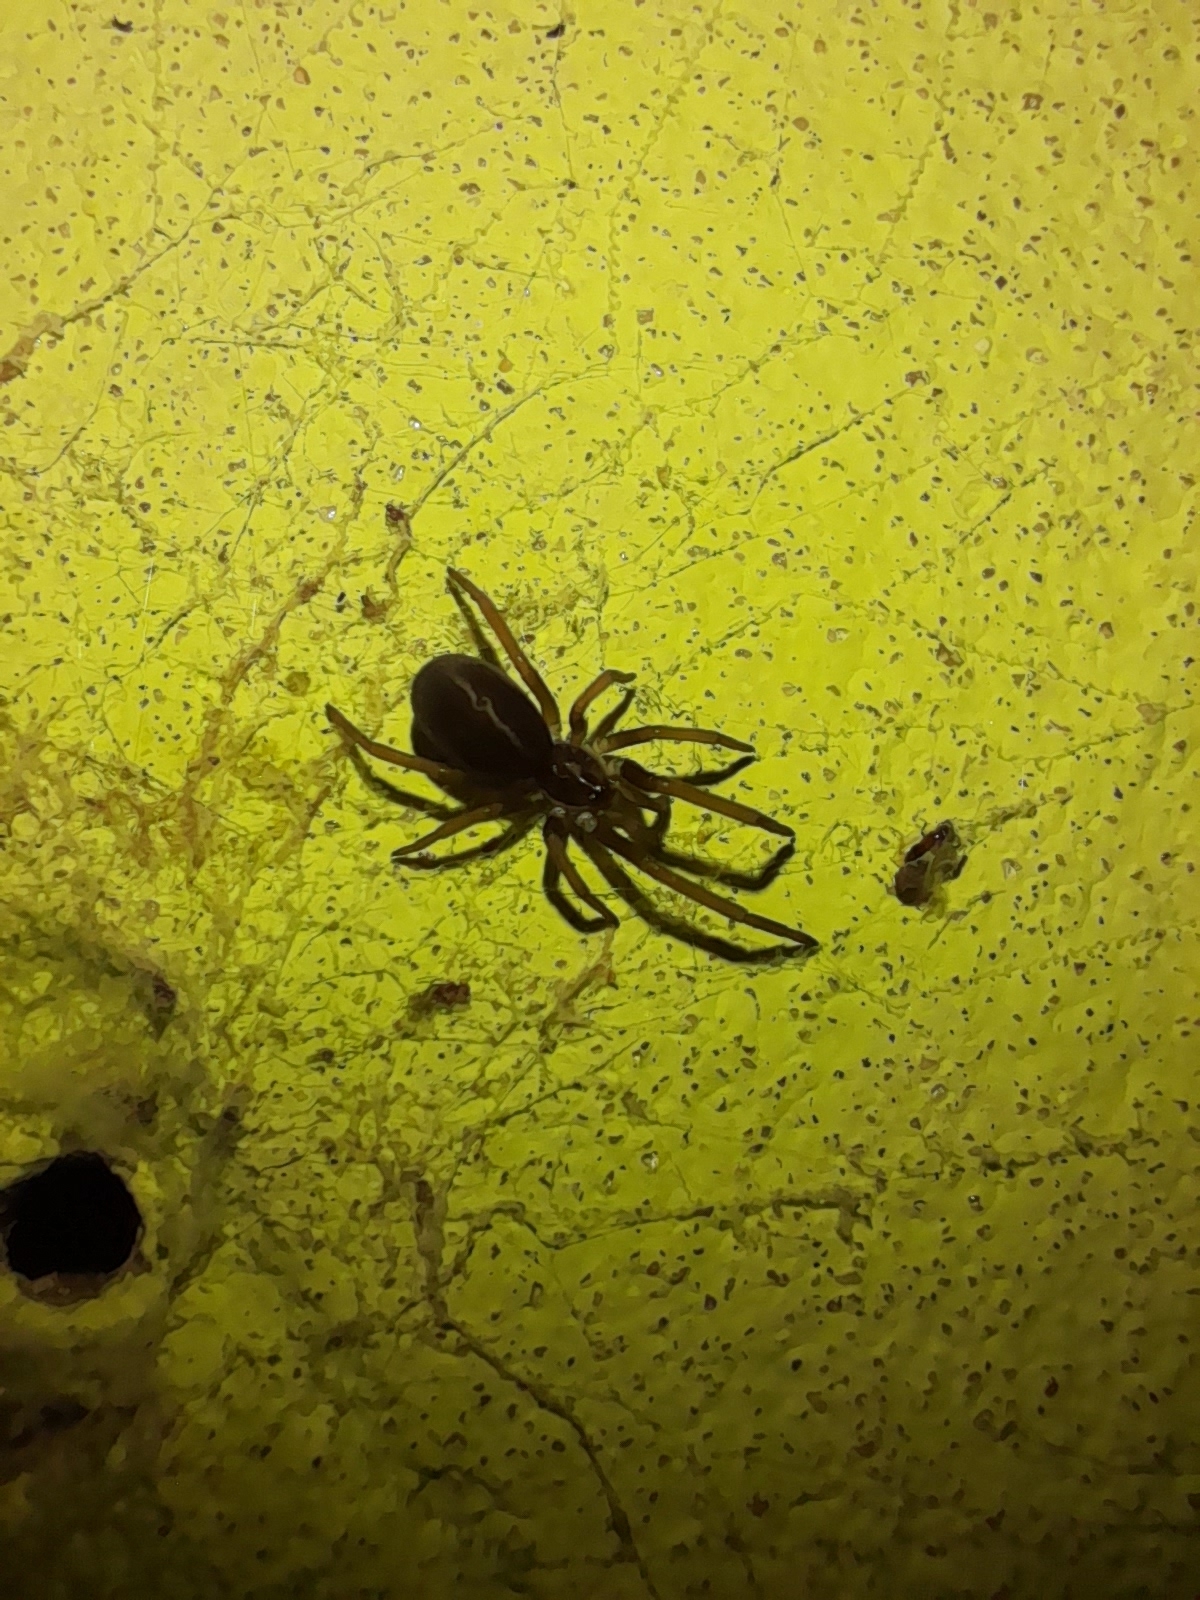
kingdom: Animalia
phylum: Arthropoda
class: Arachnida
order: Araneae
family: Filistatidae
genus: Kukulcania
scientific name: Kukulcania hibernalis
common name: Crevice weaver
